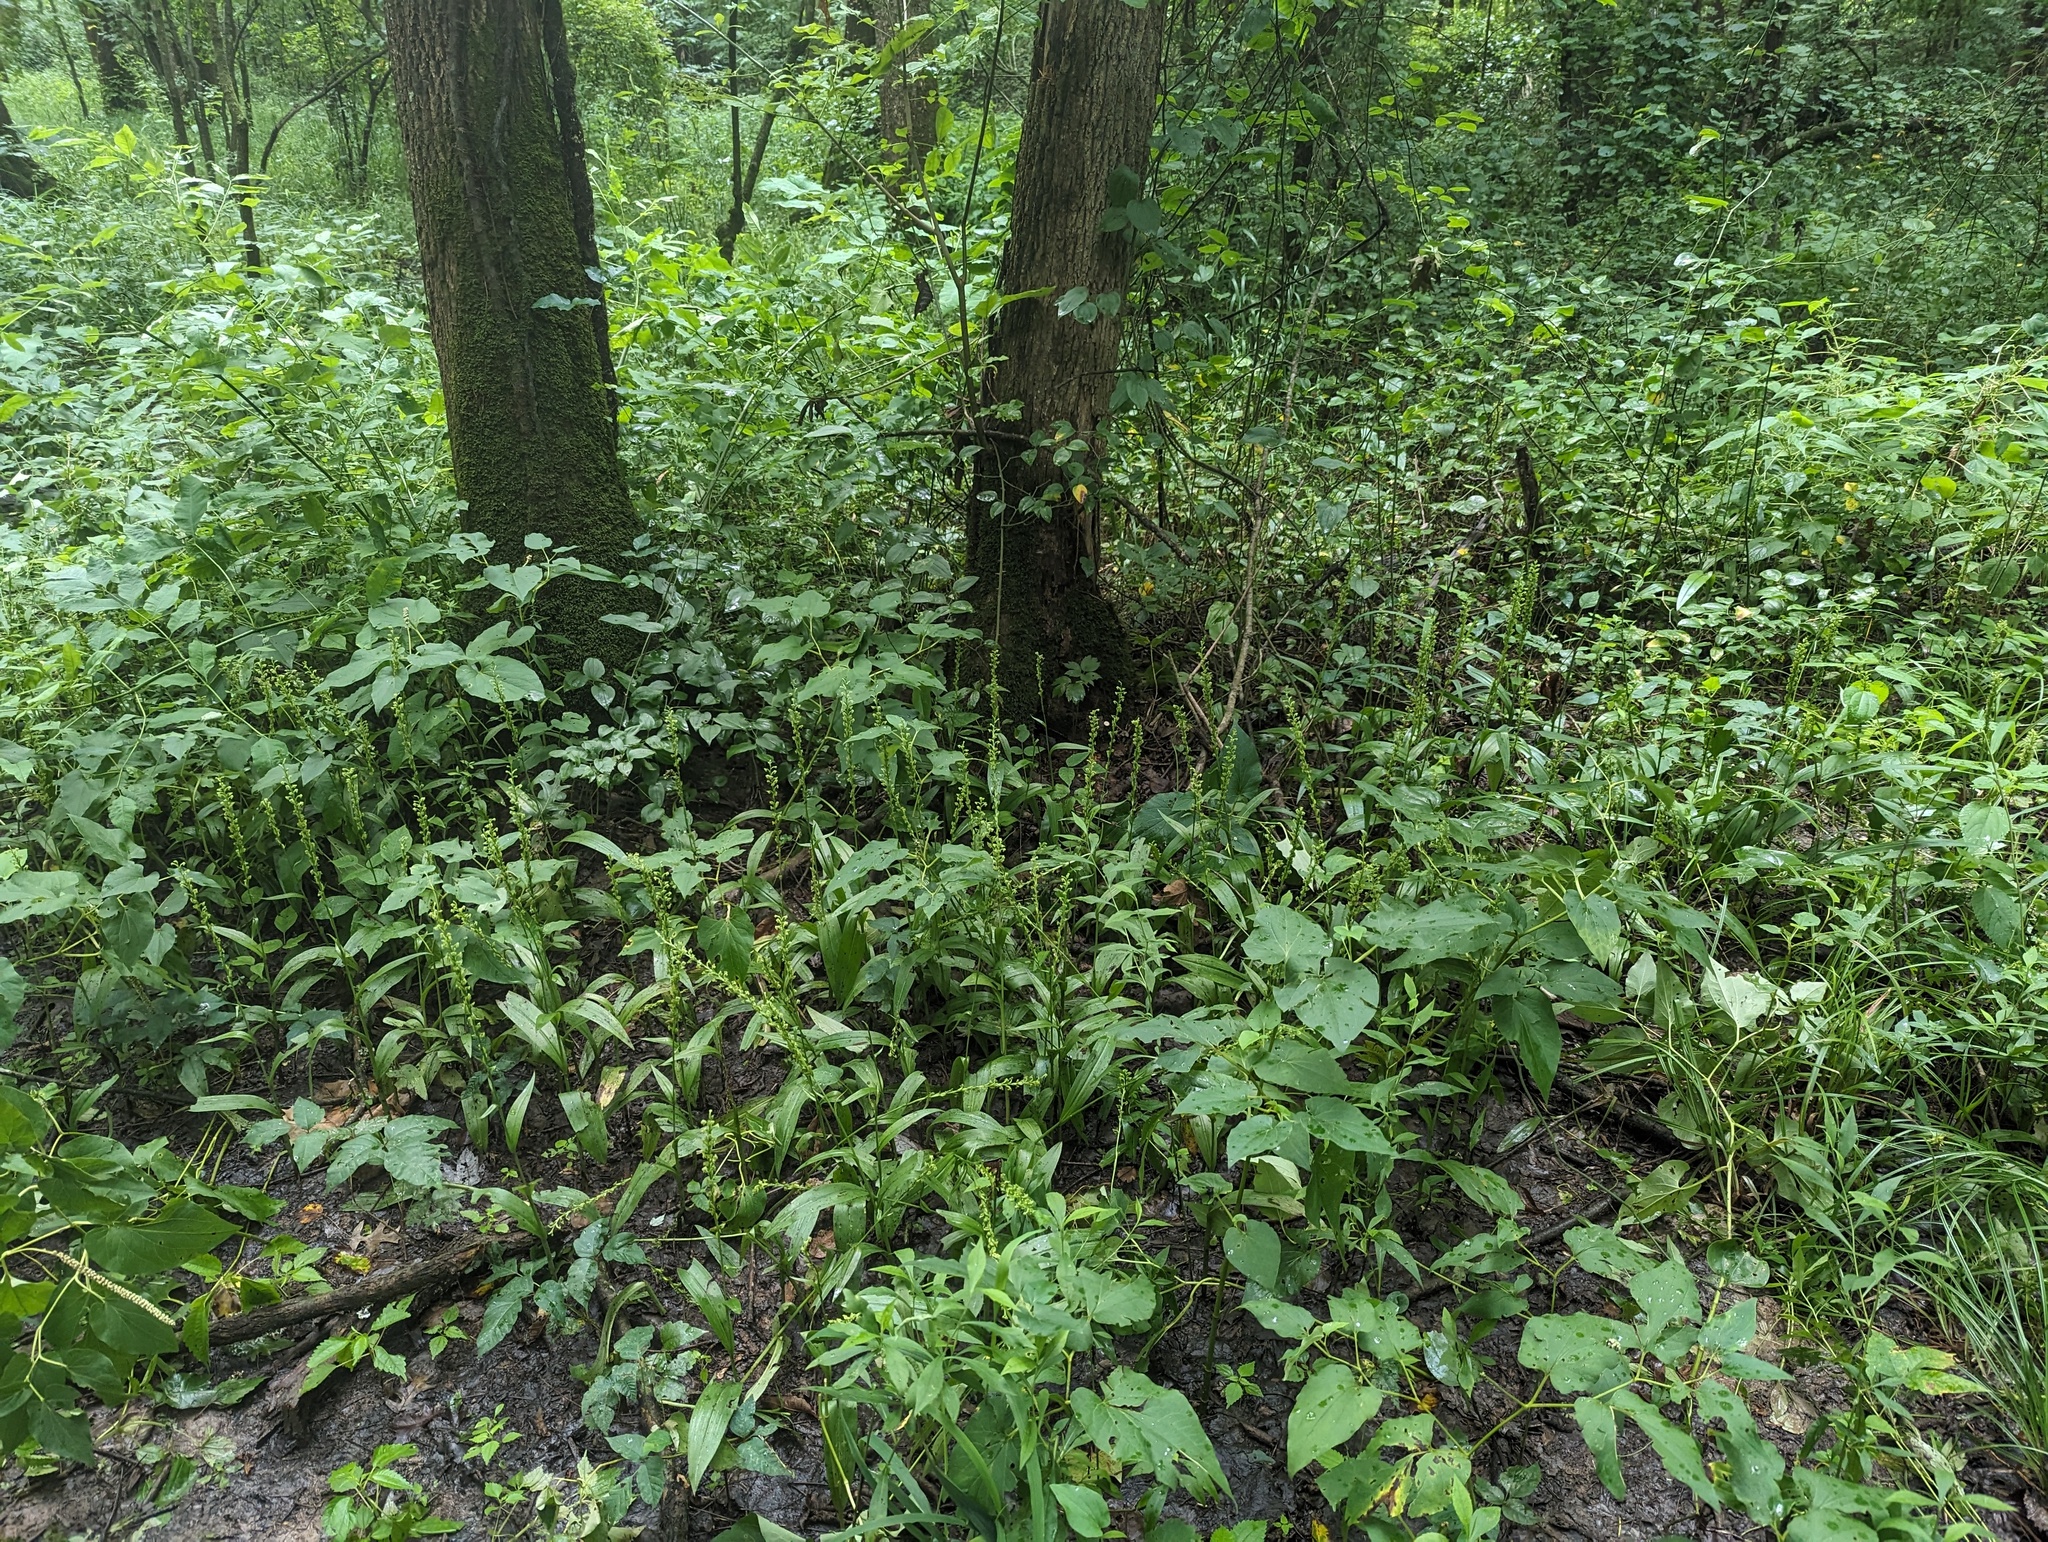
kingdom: Plantae
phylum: Tracheophyta
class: Liliopsida
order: Asparagales
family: Orchidaceae
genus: Platanthera
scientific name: Platanthera flava
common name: Gypsy-spikes
